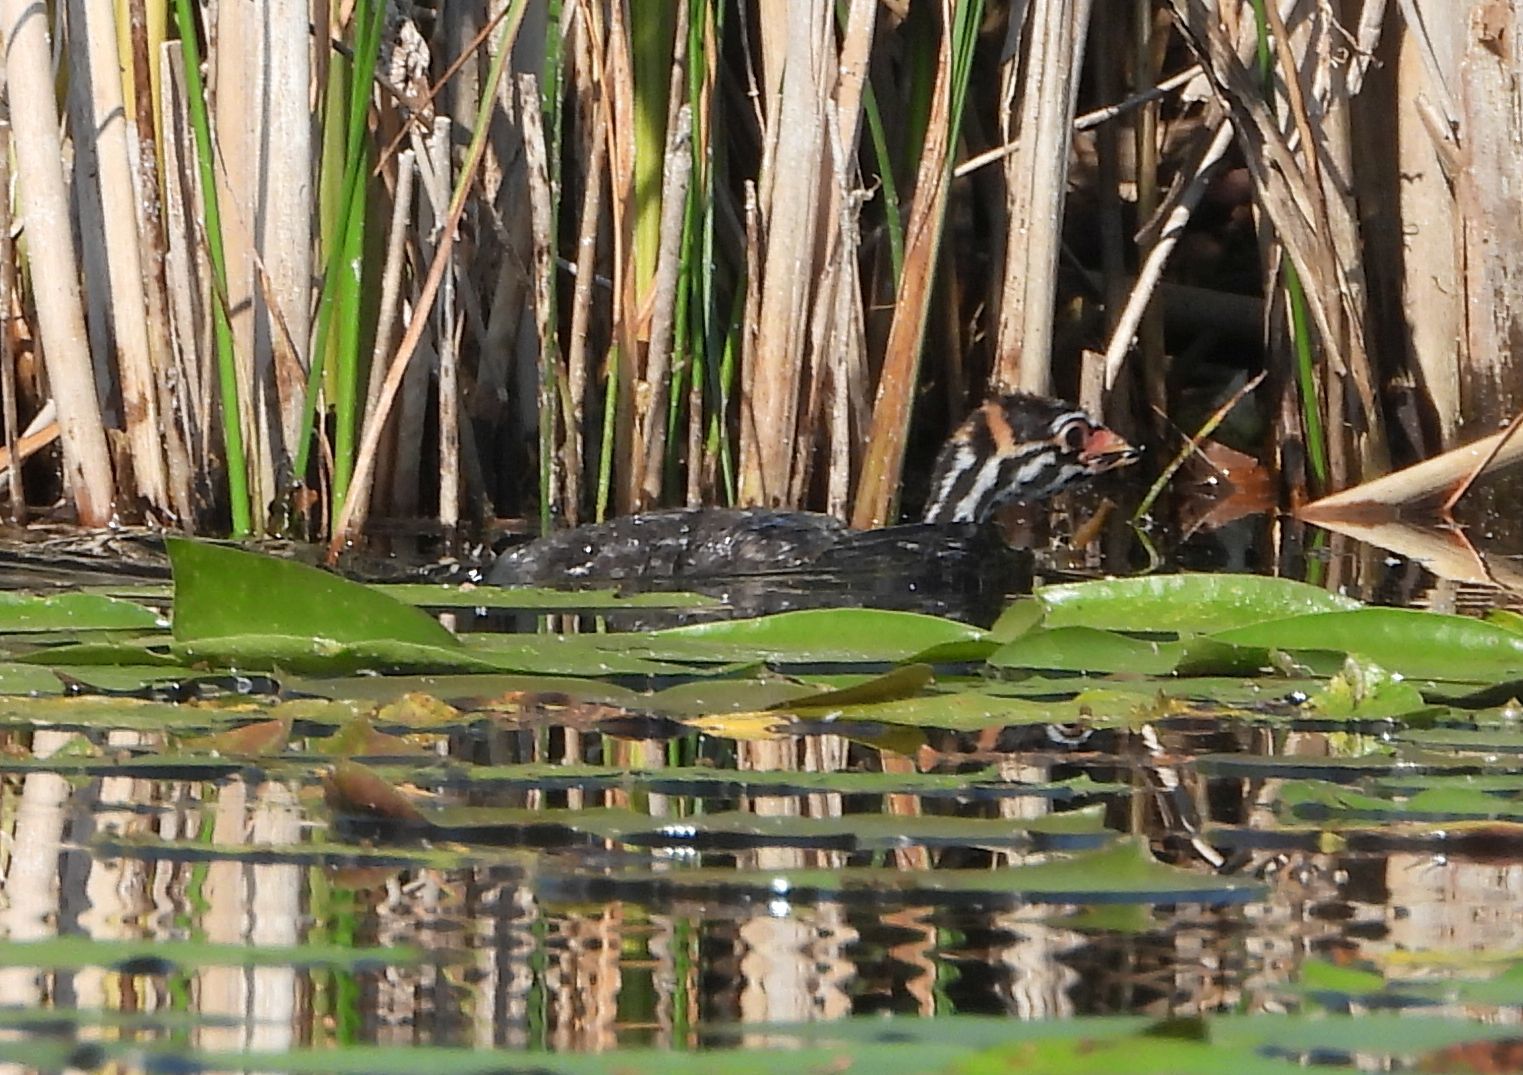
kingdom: Animalia
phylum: Chordata
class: Aves
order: Podicipediformes
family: Podicipedidae
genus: Podilymbus
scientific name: Podilymbus podiceps
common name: Pied-billed grebe
